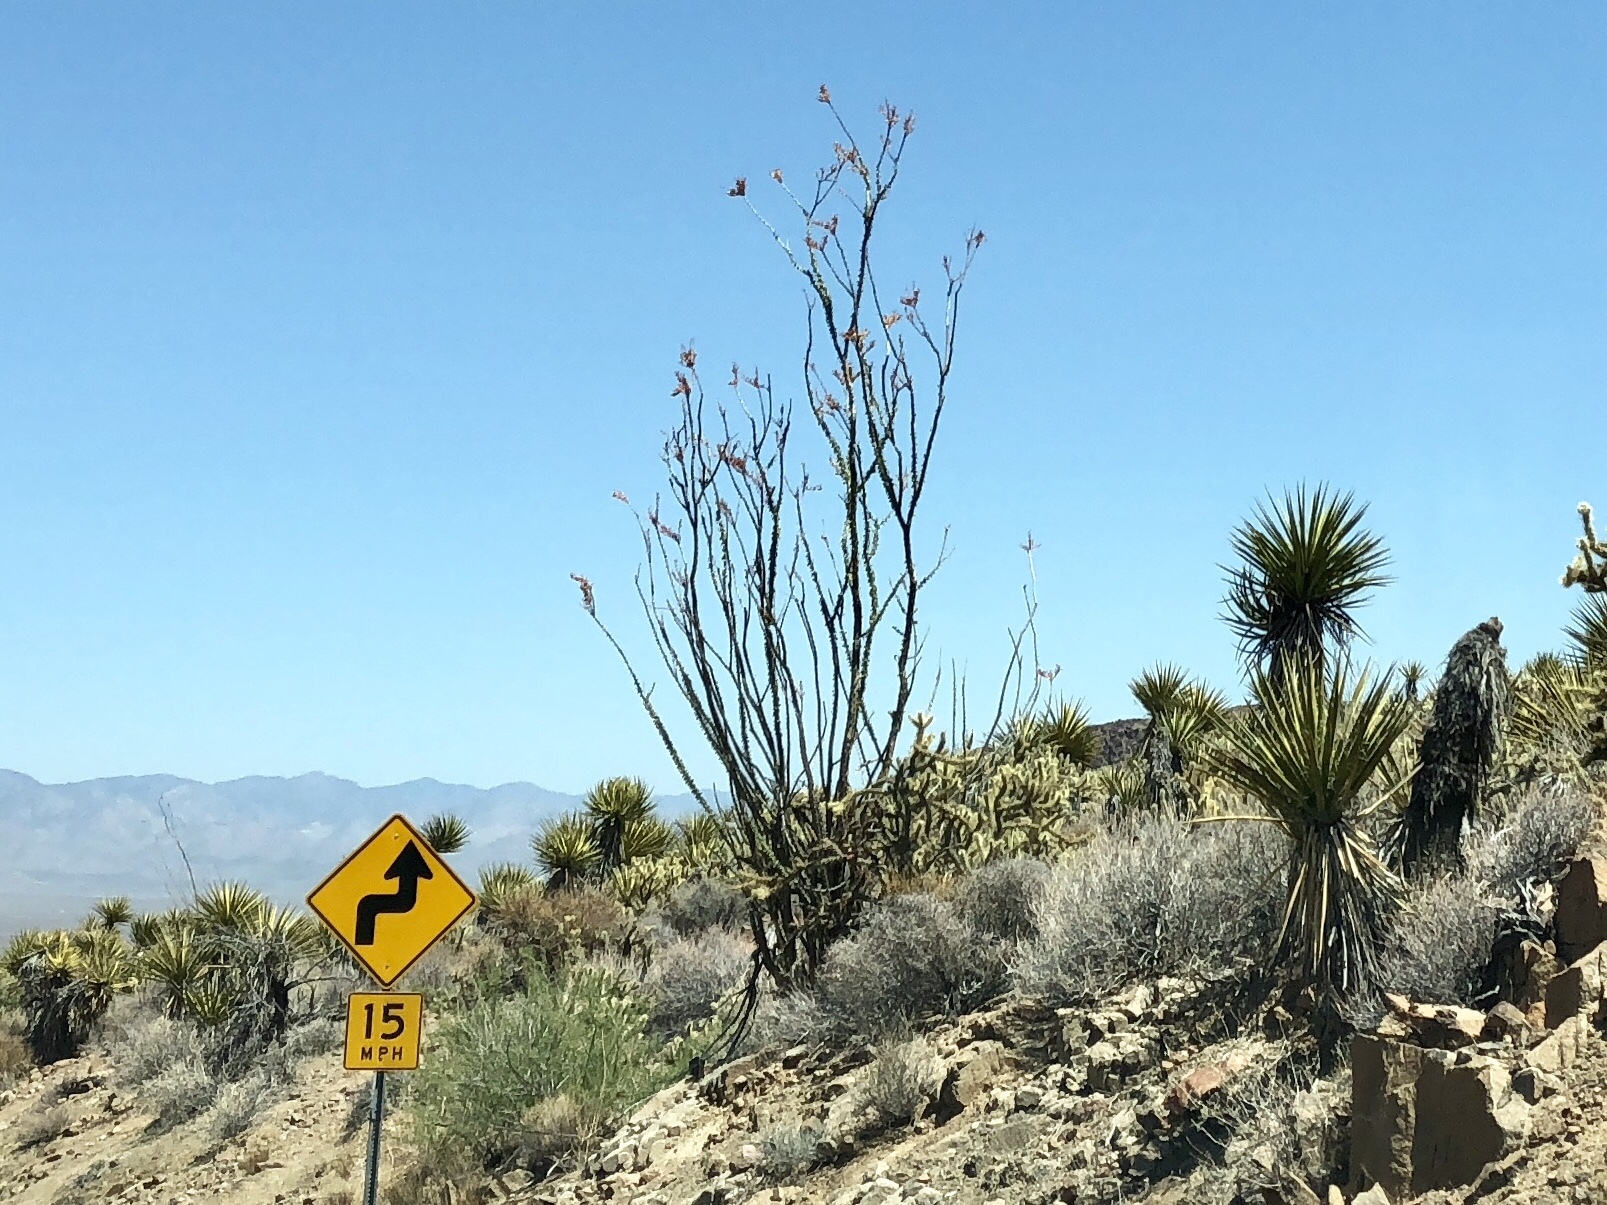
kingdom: Plantae
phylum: Tracheophyta
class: Magnoliopsida
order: Ericales
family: Fouquieriaceae
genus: Fouquieria
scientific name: Fouquieria splendens
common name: Vine-cactus
